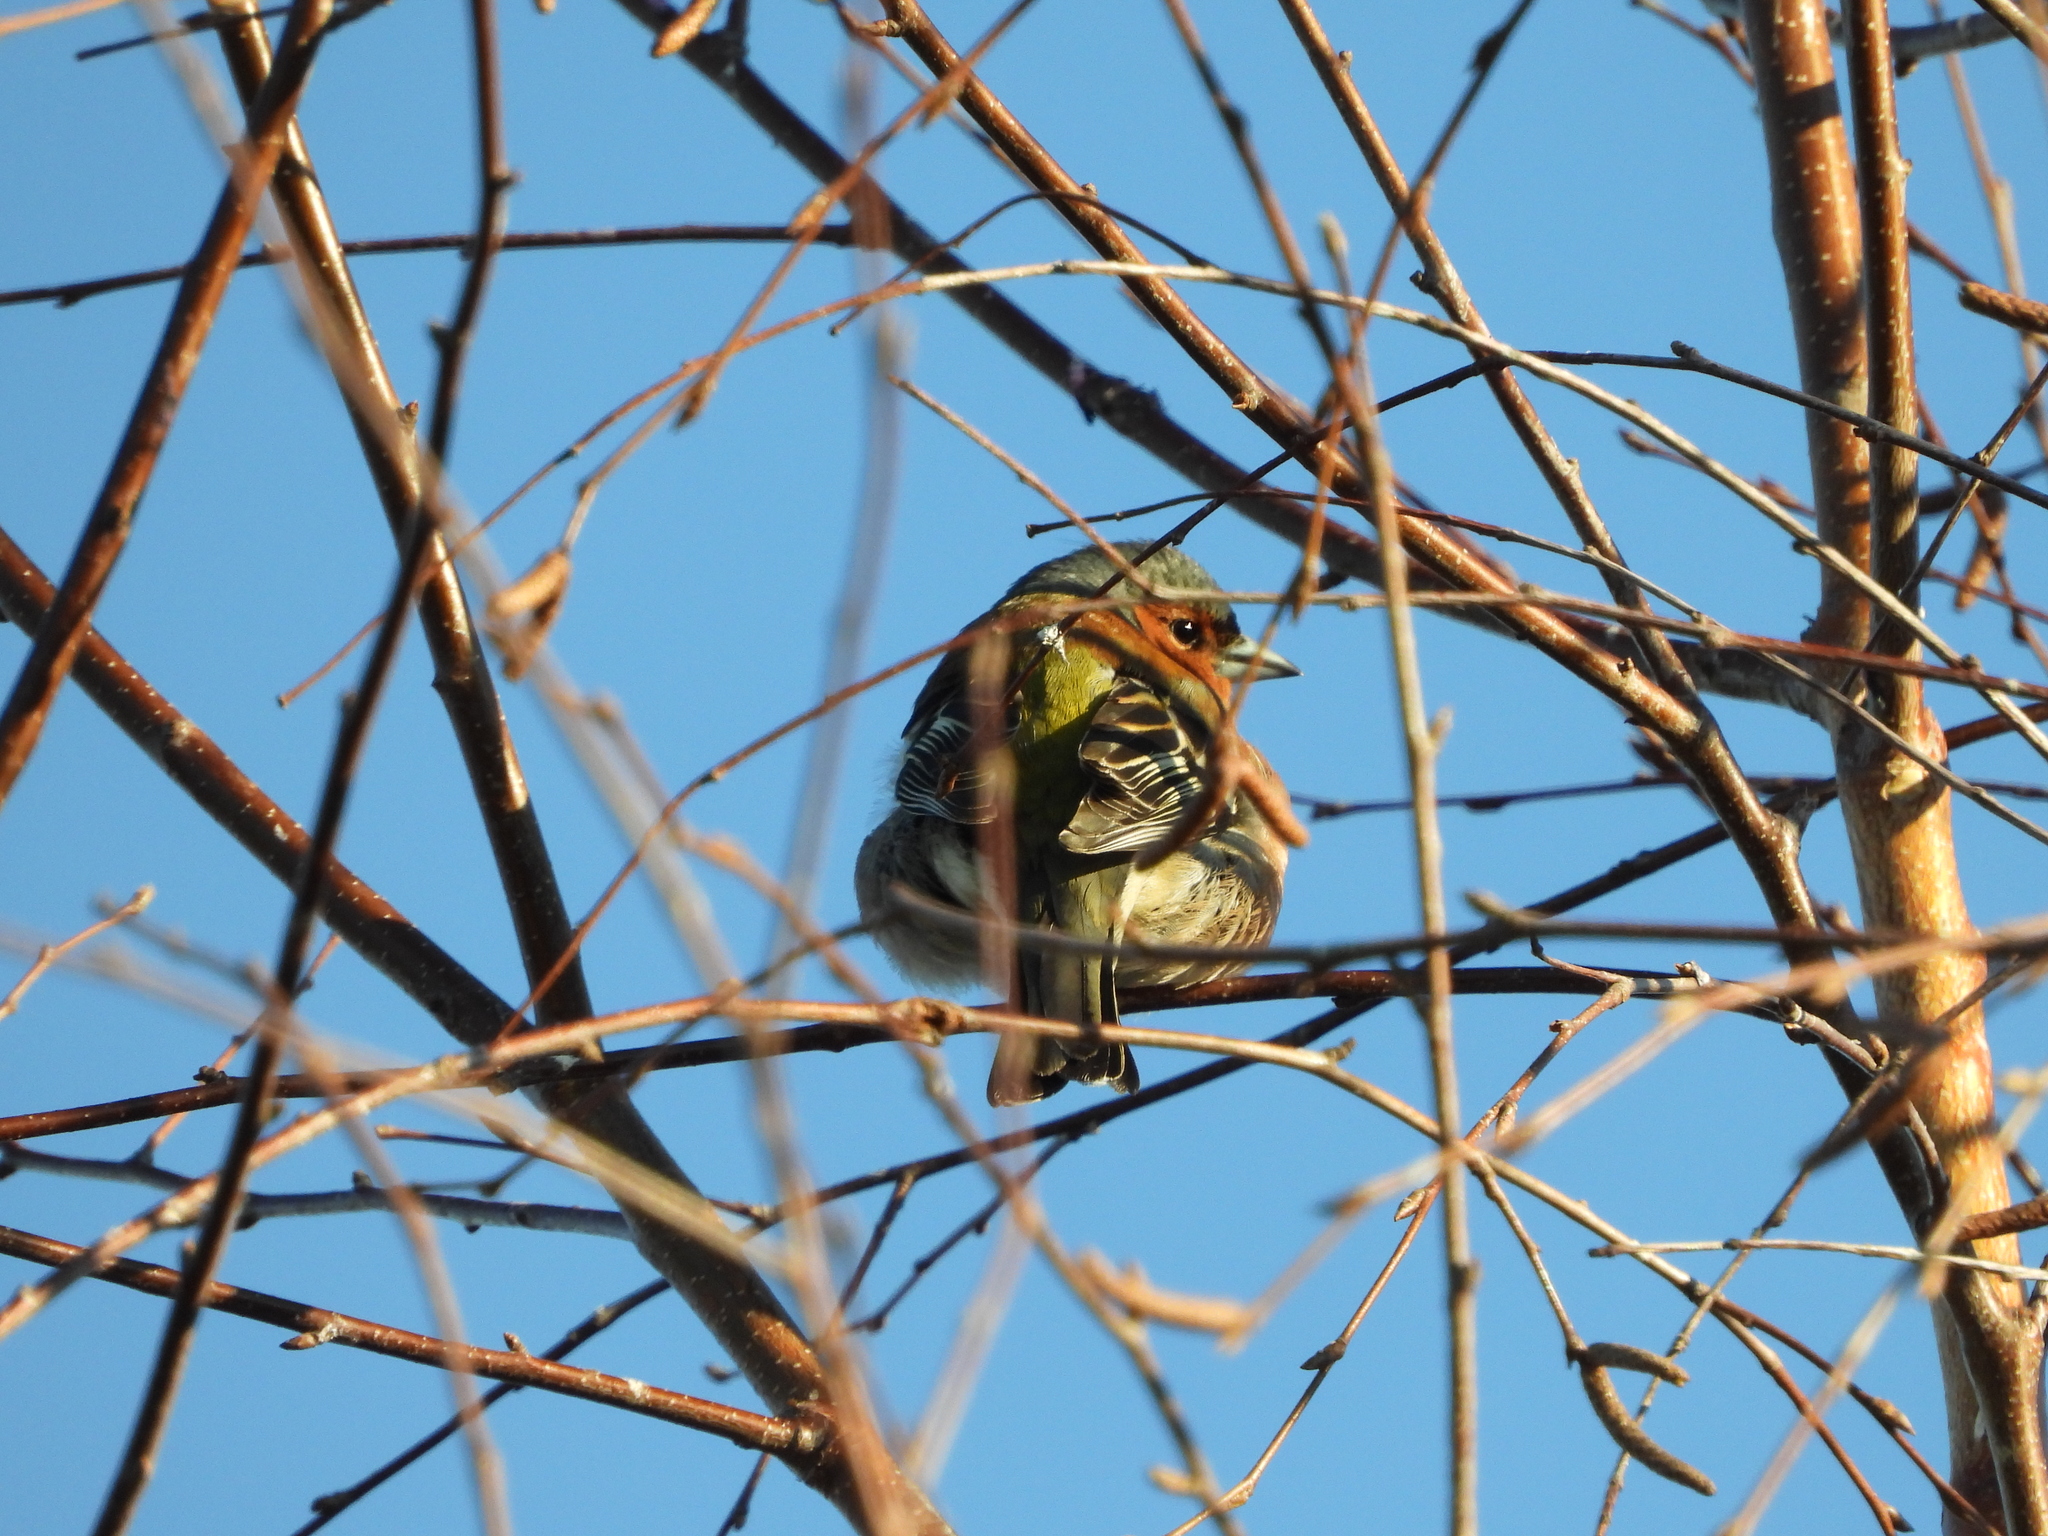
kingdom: Animalia
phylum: Chordata
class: Aves
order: Passeriformes
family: Fringillidae
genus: Fringilla
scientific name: Fringilla coelebs
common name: Common chaffinch
